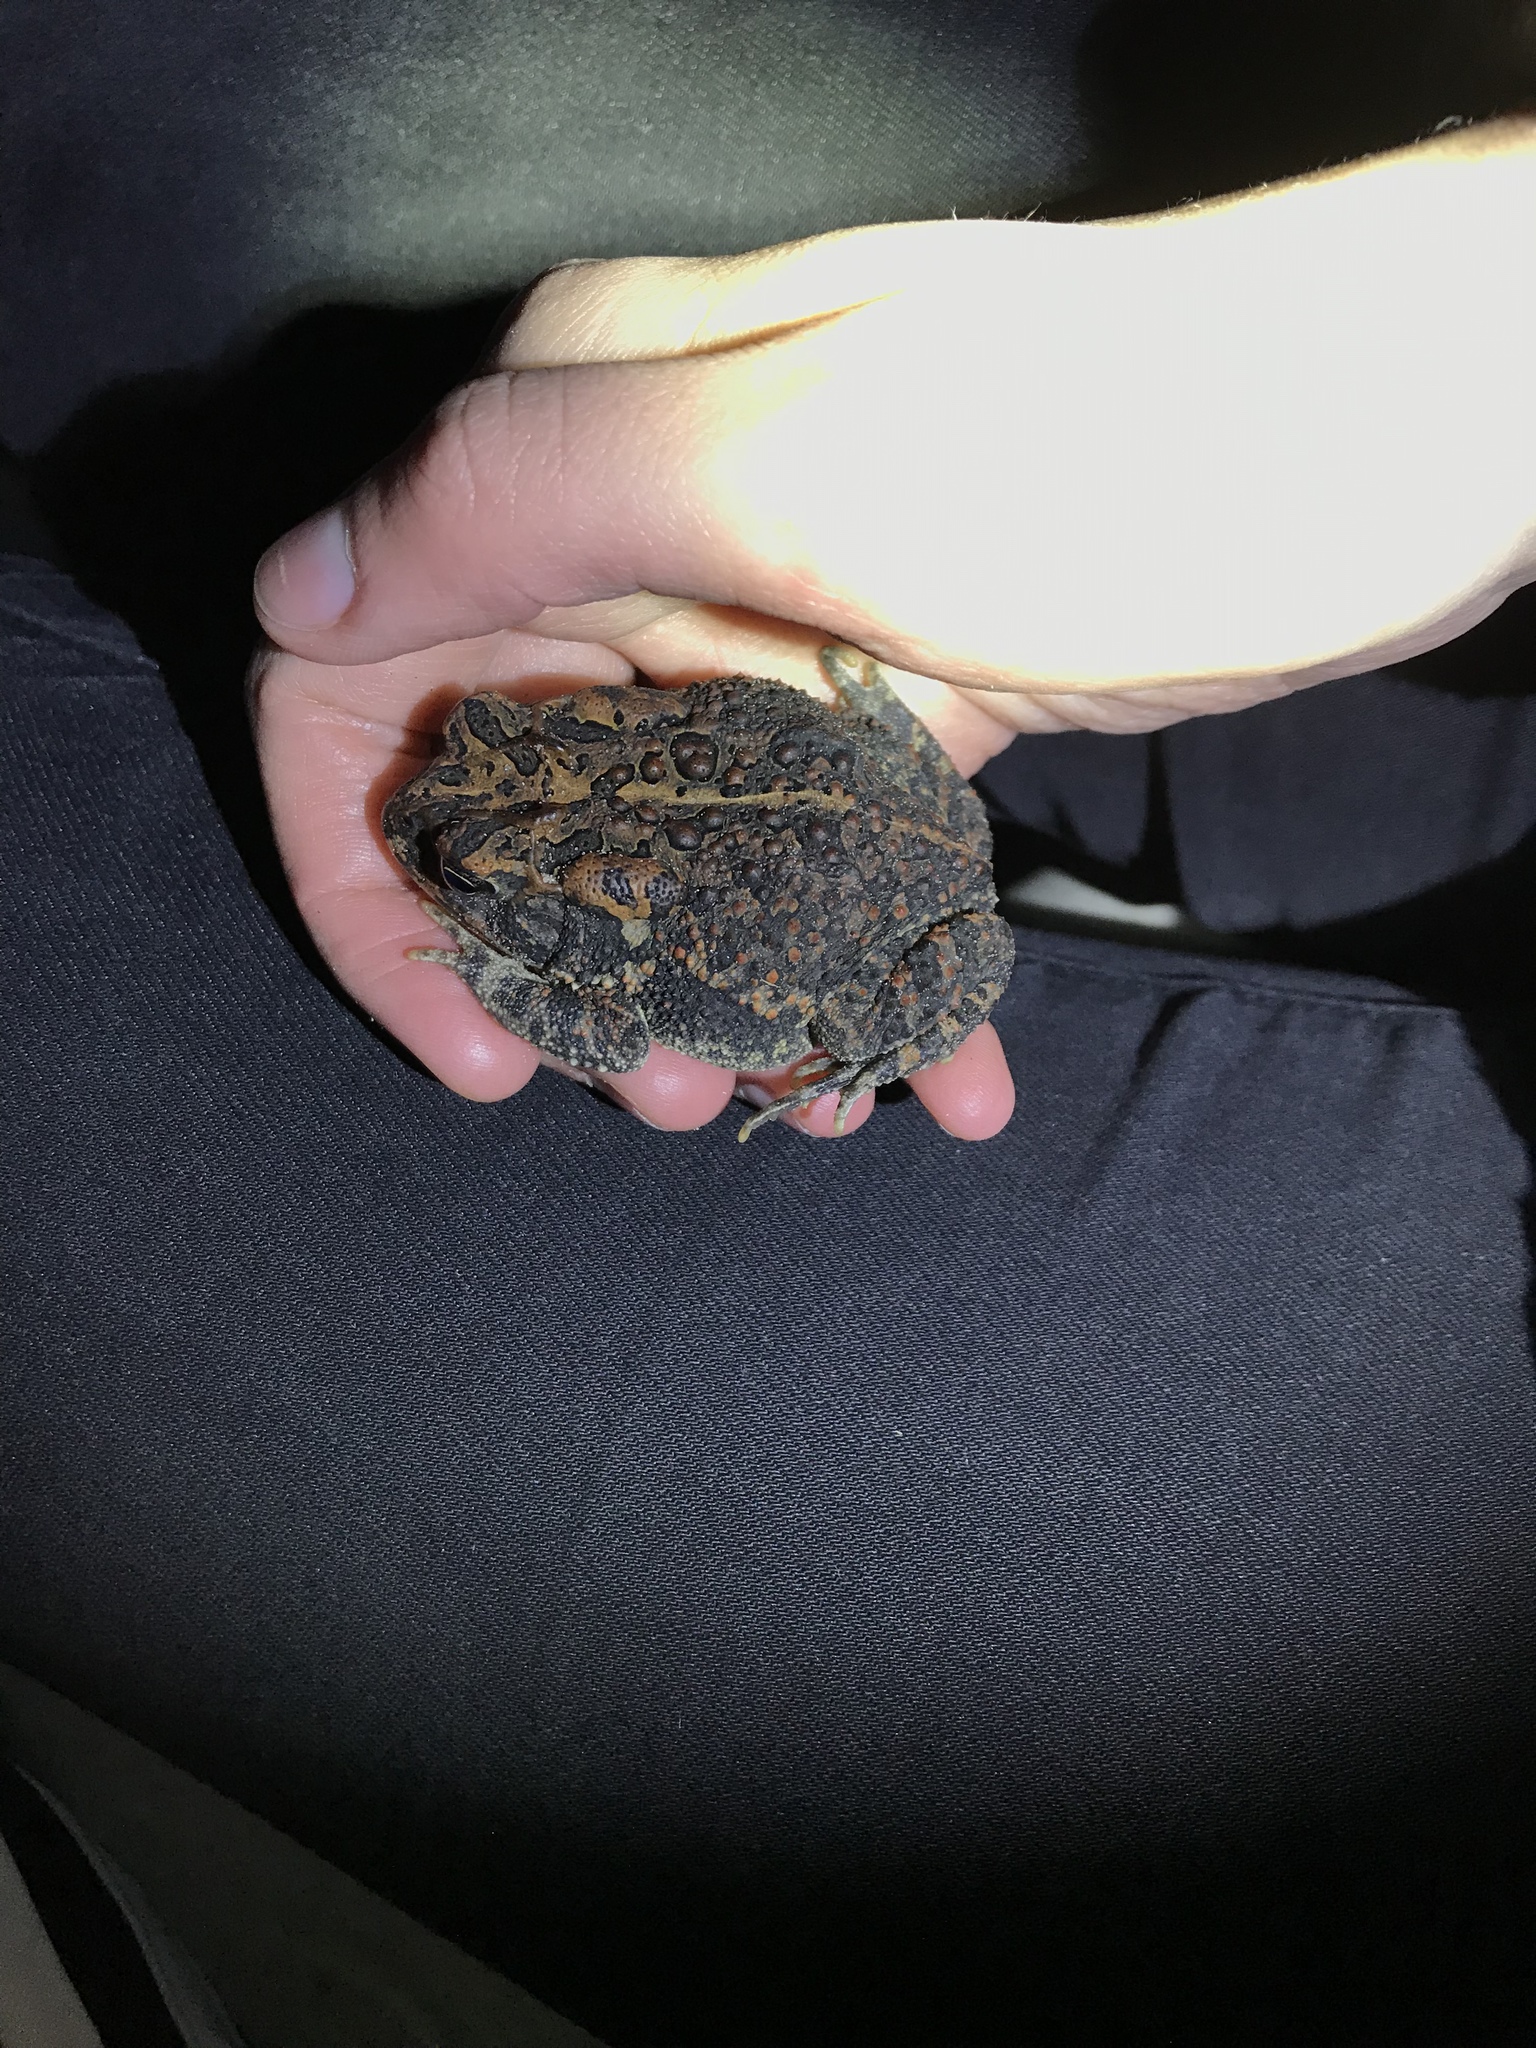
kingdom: Animalia
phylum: Chordata
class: Amphibia
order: Anura
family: Bufonidae
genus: Anaxyrus
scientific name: Anaxyrus terrestris
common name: Southern toad
